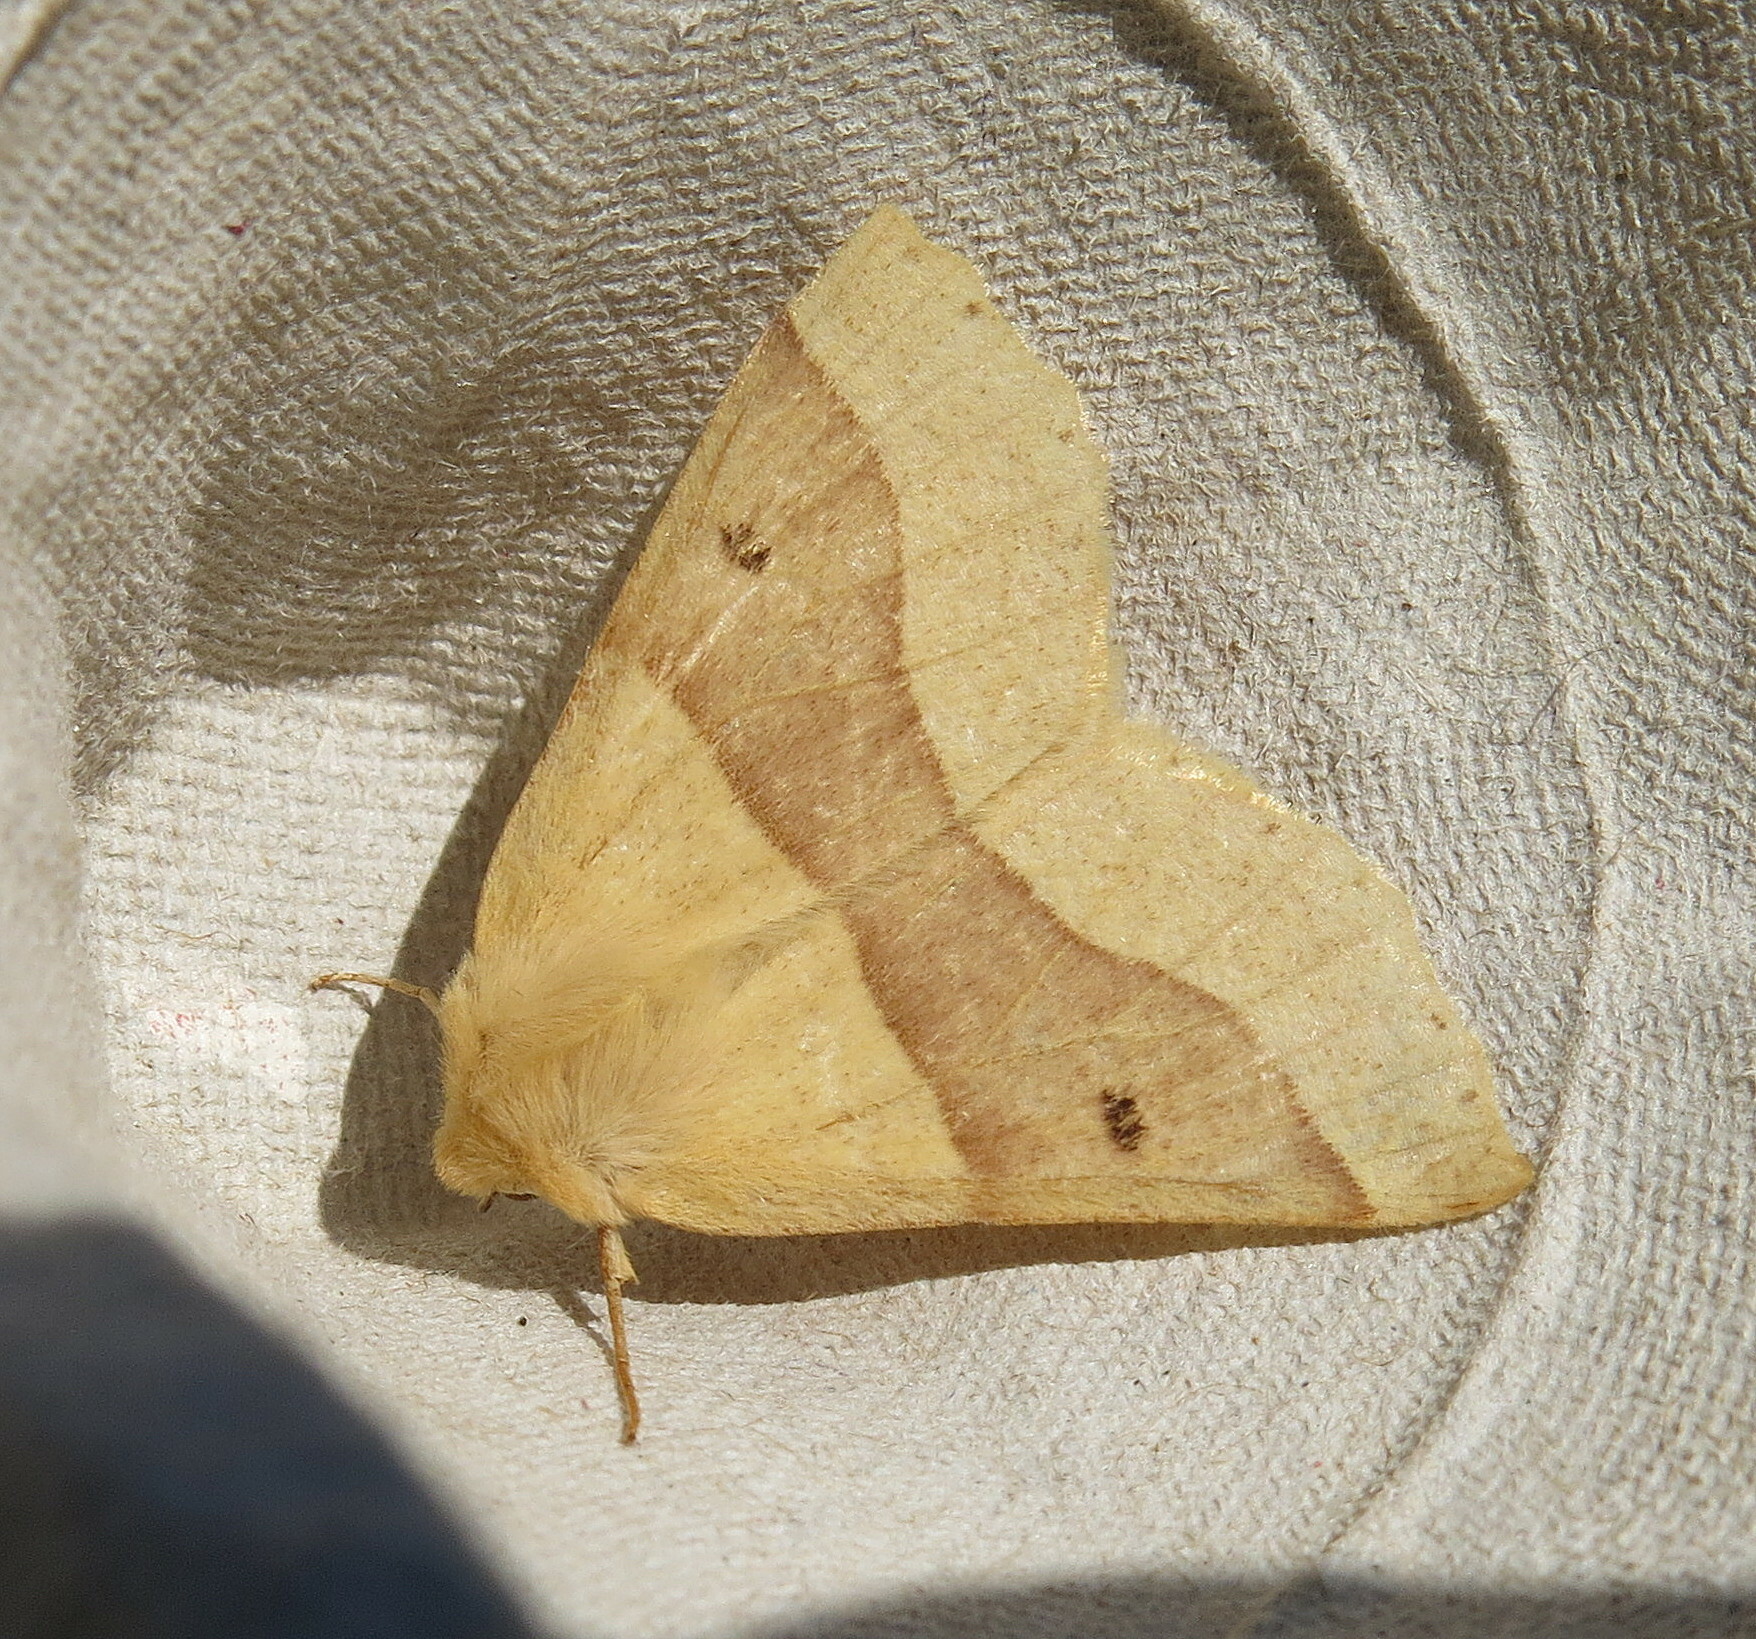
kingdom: Animalia
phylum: Arthropoda
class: Insecta
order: Lepidoptera
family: Geometridae
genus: Crocallis
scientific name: Crocallis elinguaria
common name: Scalloped oak
